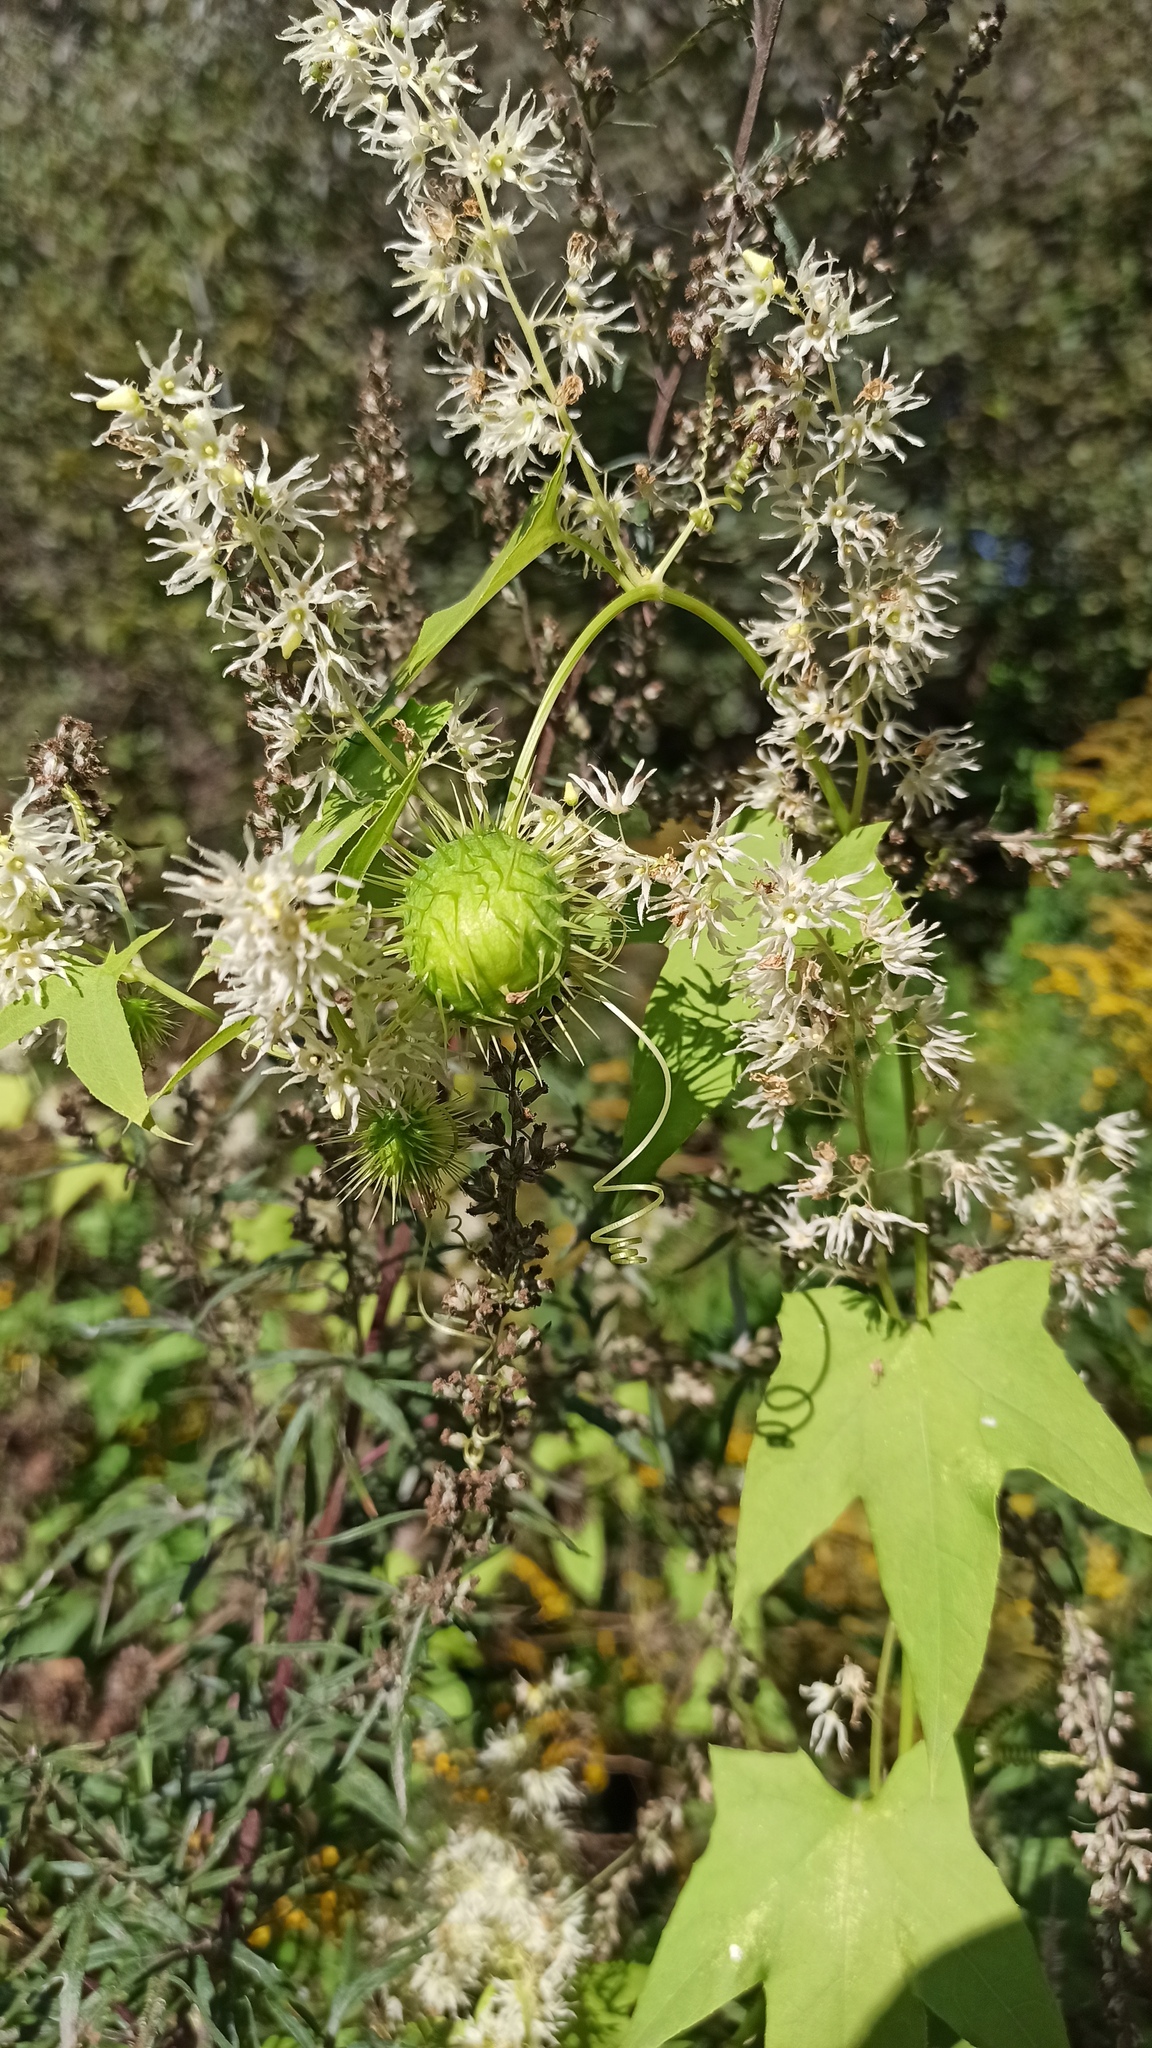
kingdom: Plantae
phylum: Tracheophyta
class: Magnoliopsida
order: Cucurbitales
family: Cucurbitaceae
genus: Echinocystis
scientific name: Echinocystis lobata
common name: Wild cucumber
